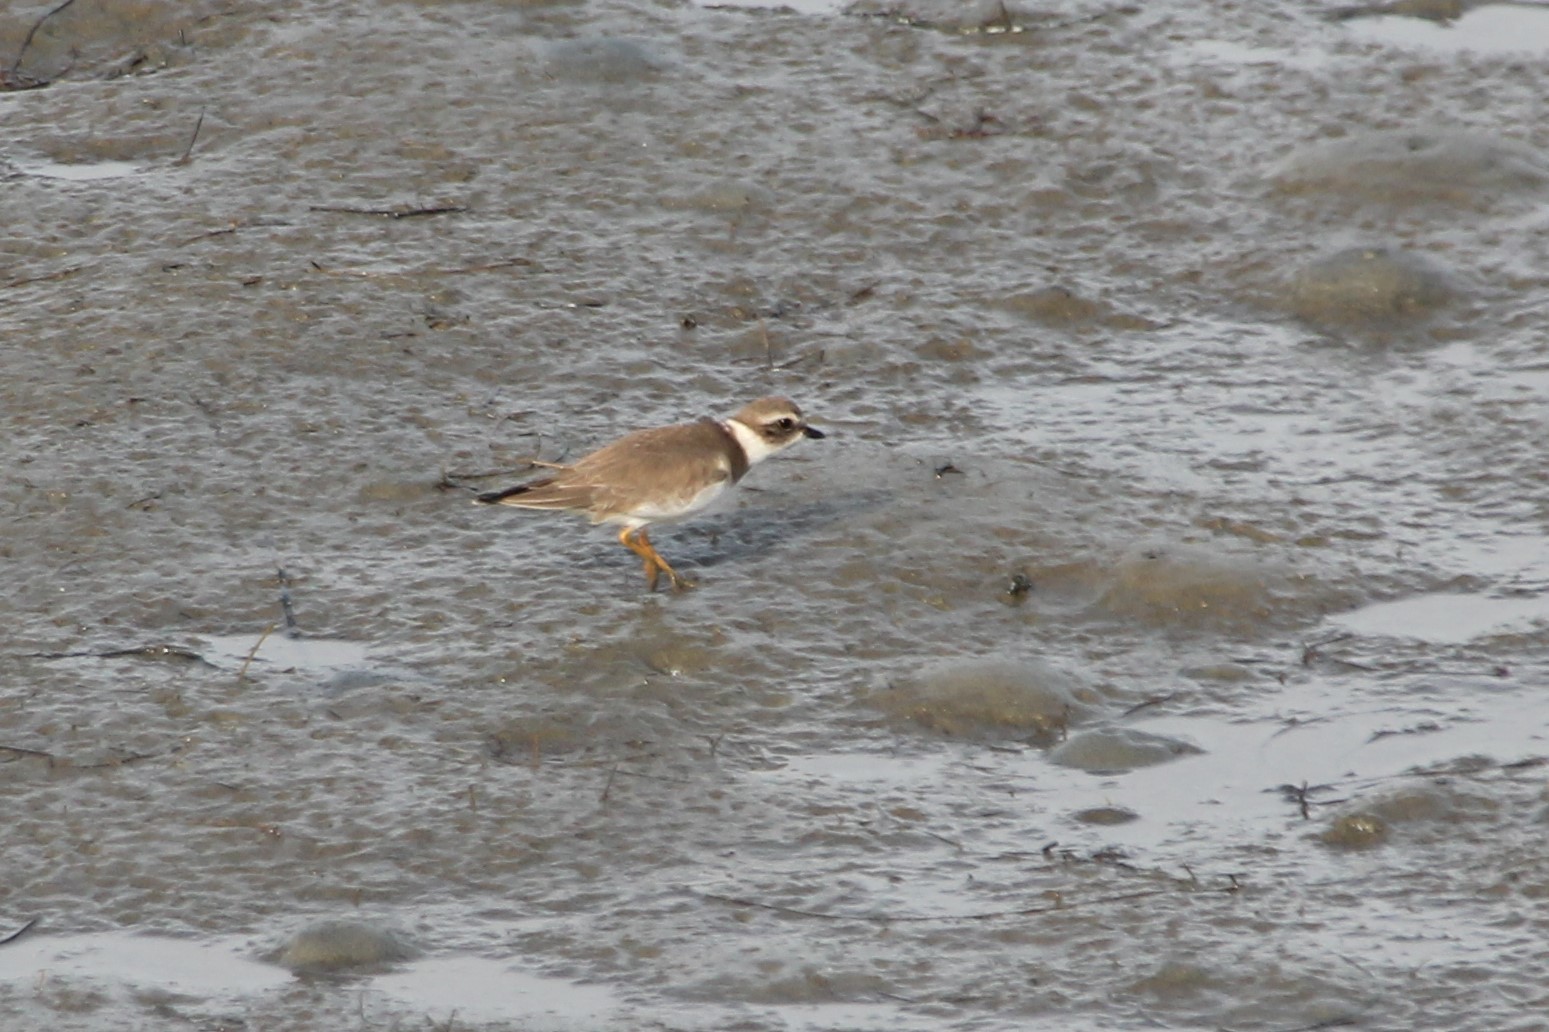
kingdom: Animalia
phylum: Chordata
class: Aves
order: Charadriiformes
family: Charadriidae
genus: Charadrius
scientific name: Charadrius semipalmatus
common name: Semipalmated plover
